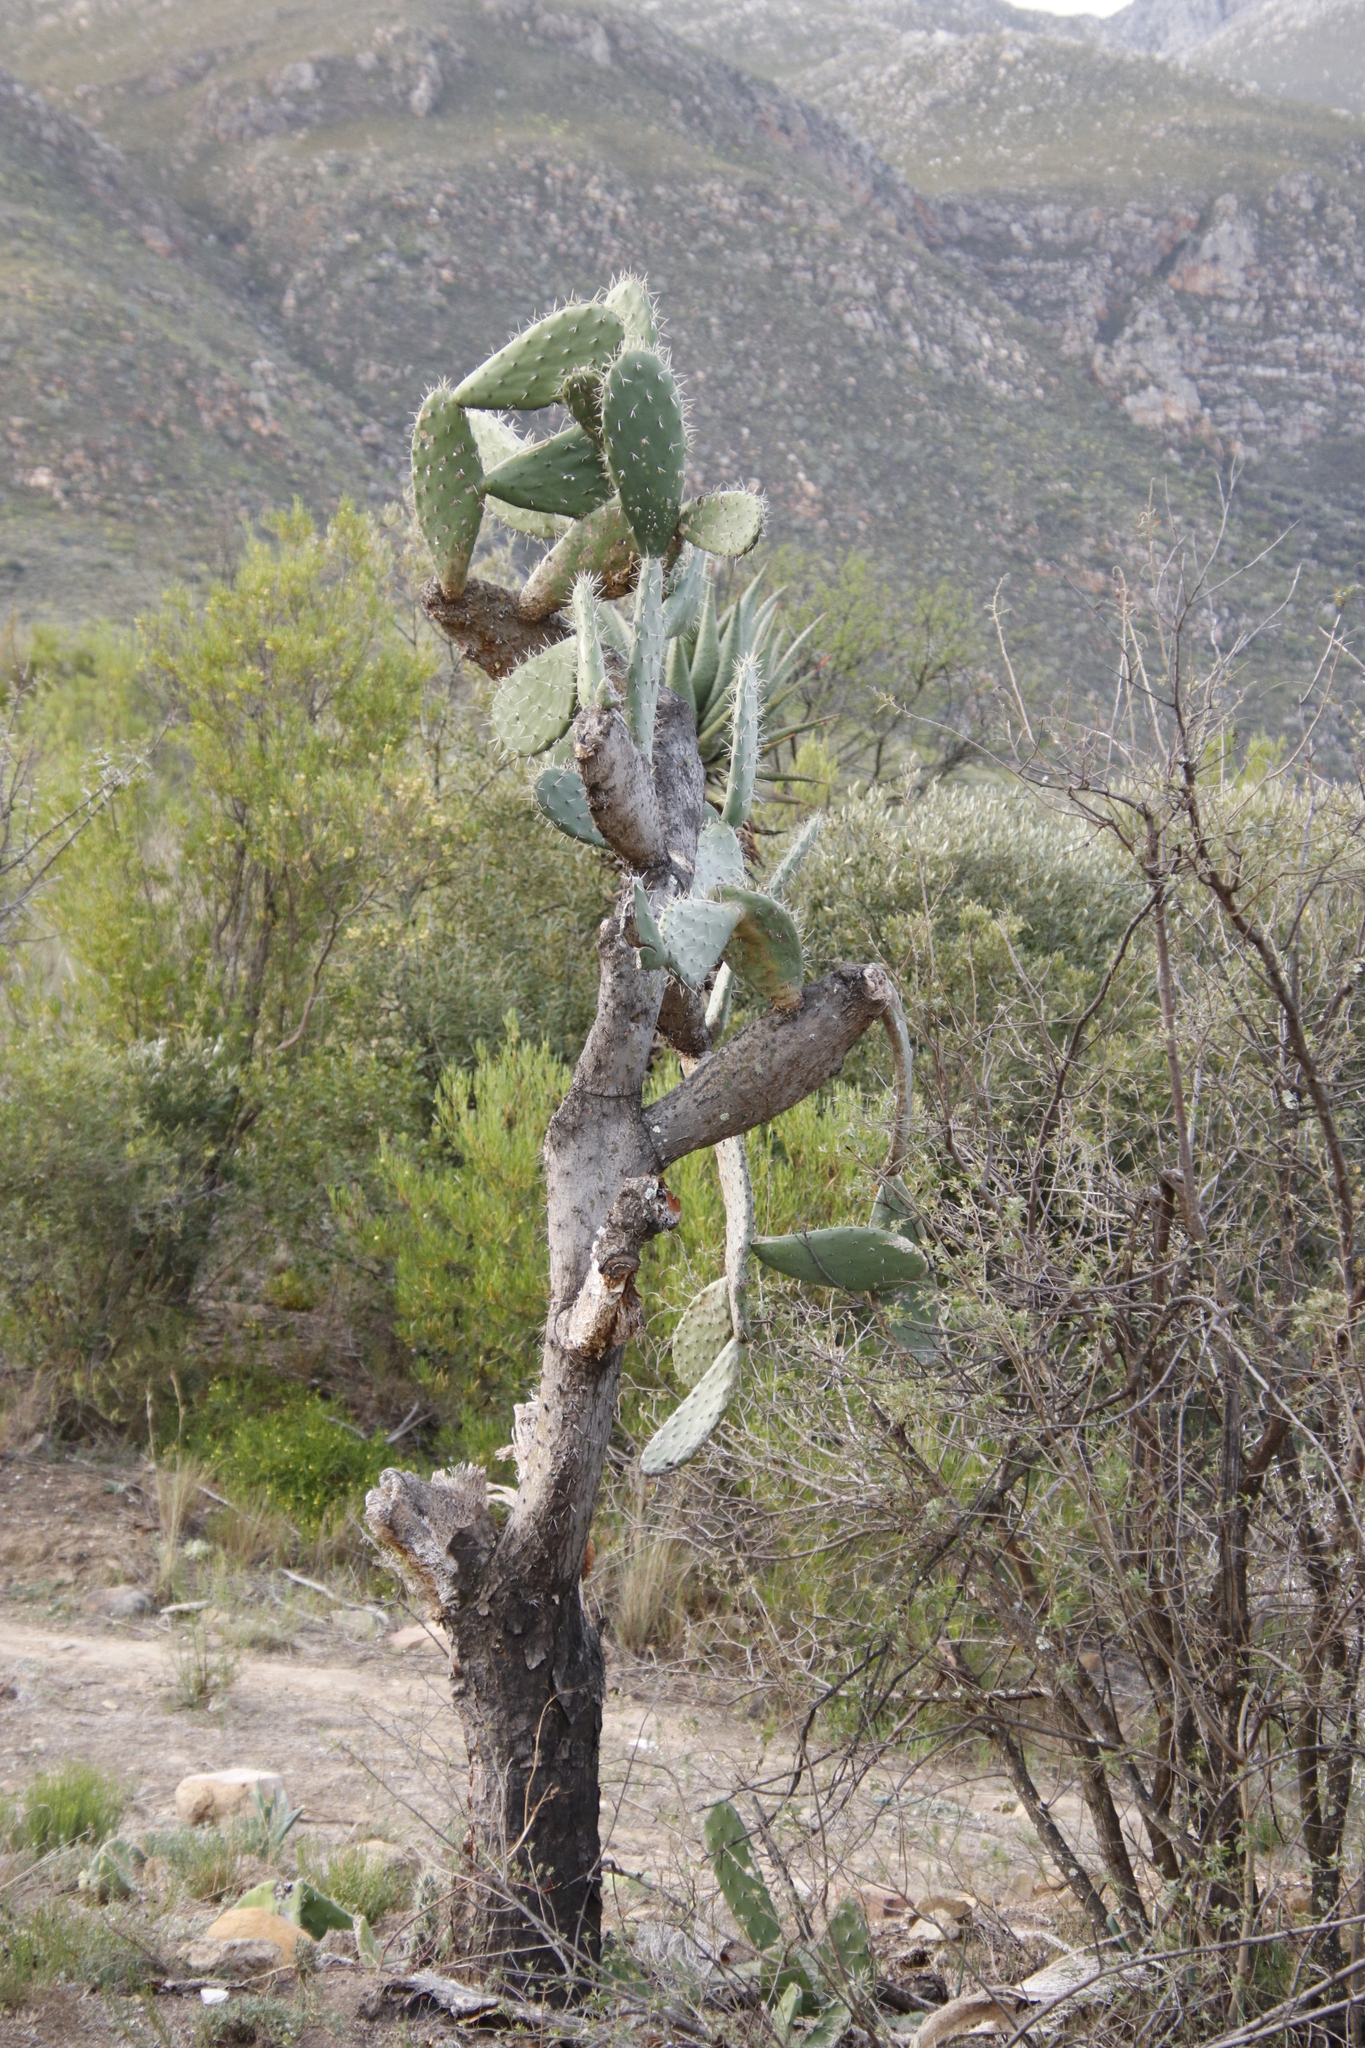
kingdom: Plantae
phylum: Tracheophyta
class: Magnoliopsida
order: Caryophyllales
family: Cactaceae
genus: Opuntia
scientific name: Opuntia ficus-indica
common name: Barbary fig
